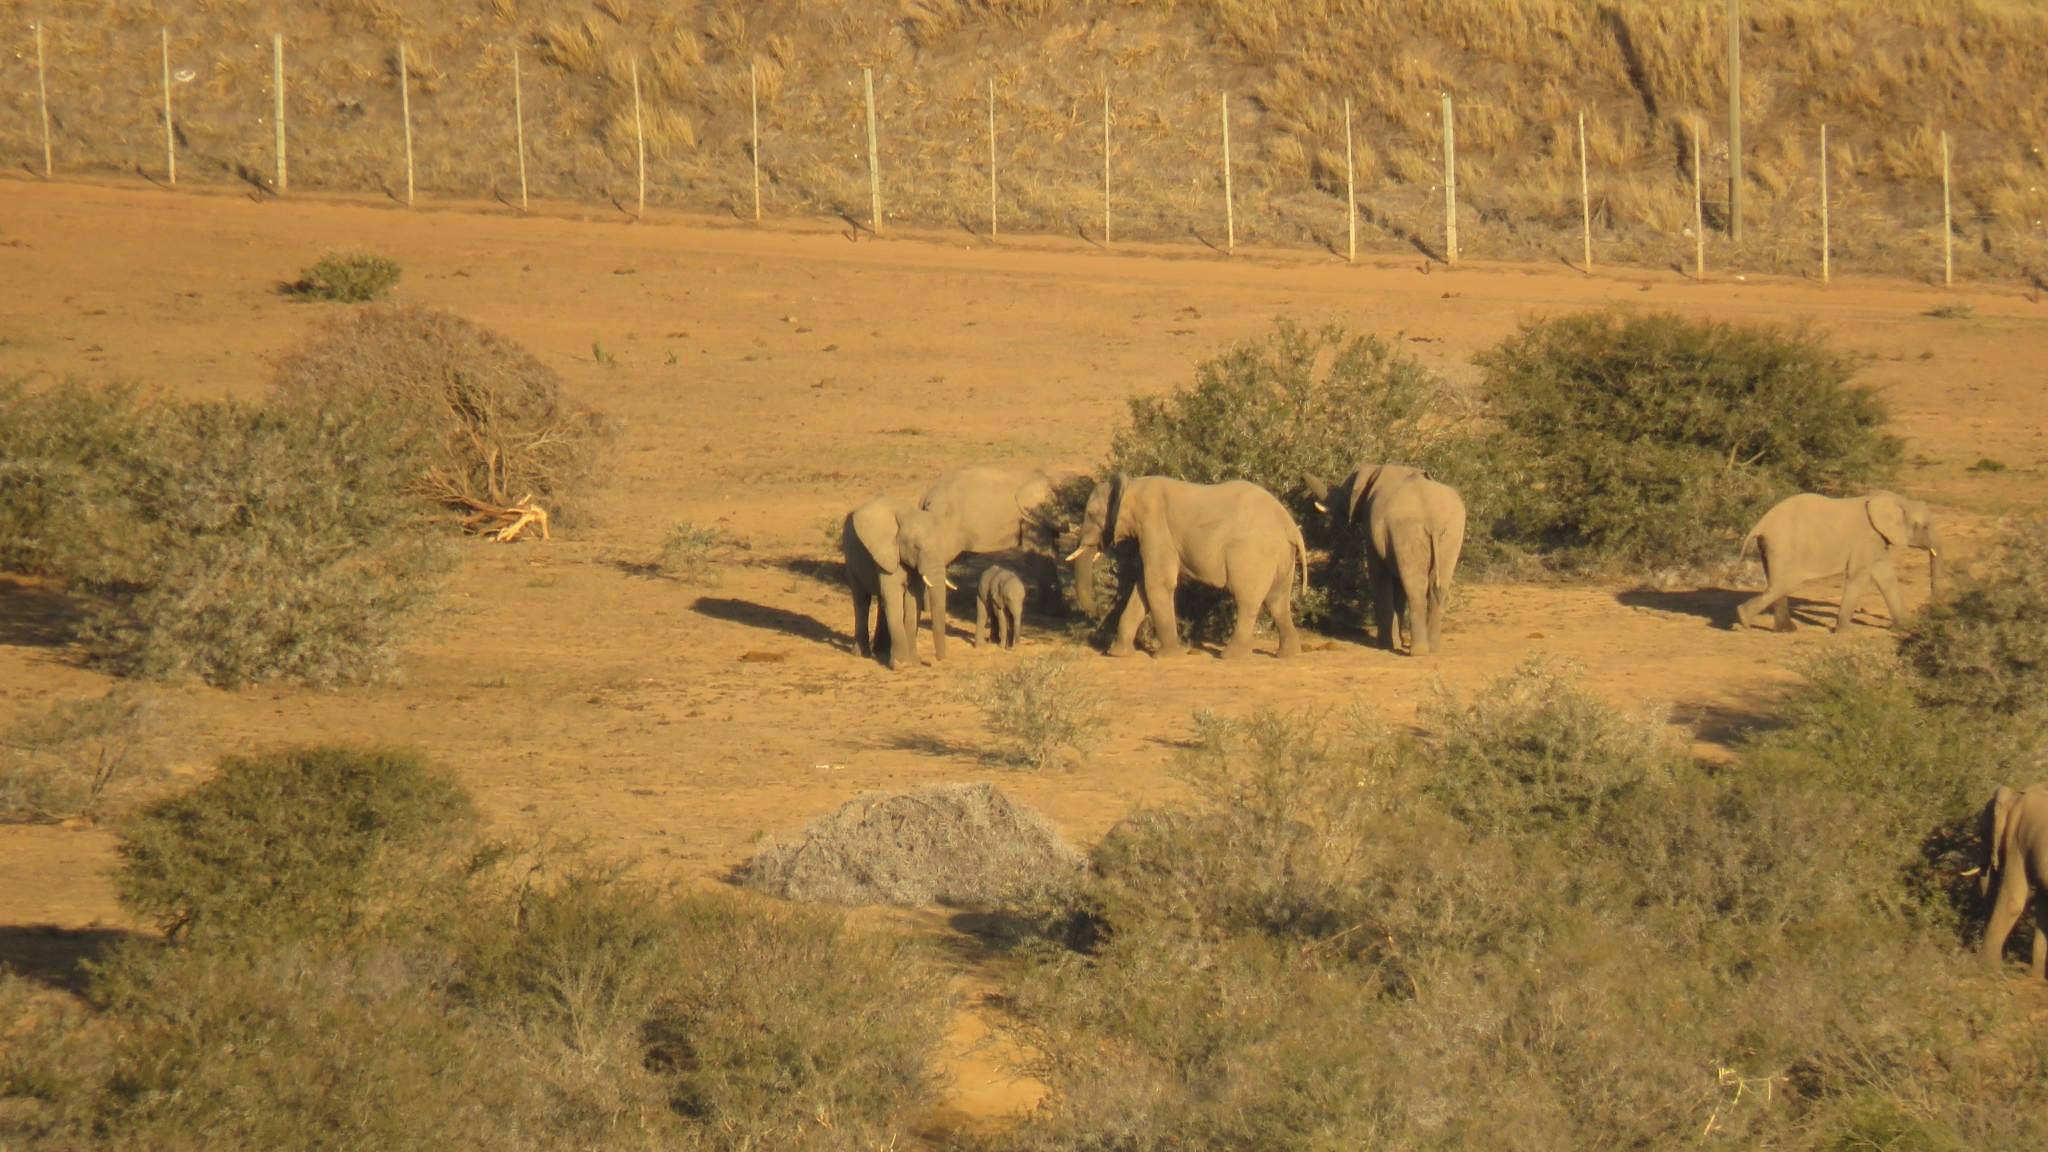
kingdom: Animalia
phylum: Chordata
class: Mammalia
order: Proboscidea
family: Elephantidae
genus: Loxodonta
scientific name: Loxodonta africana
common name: African elephant
